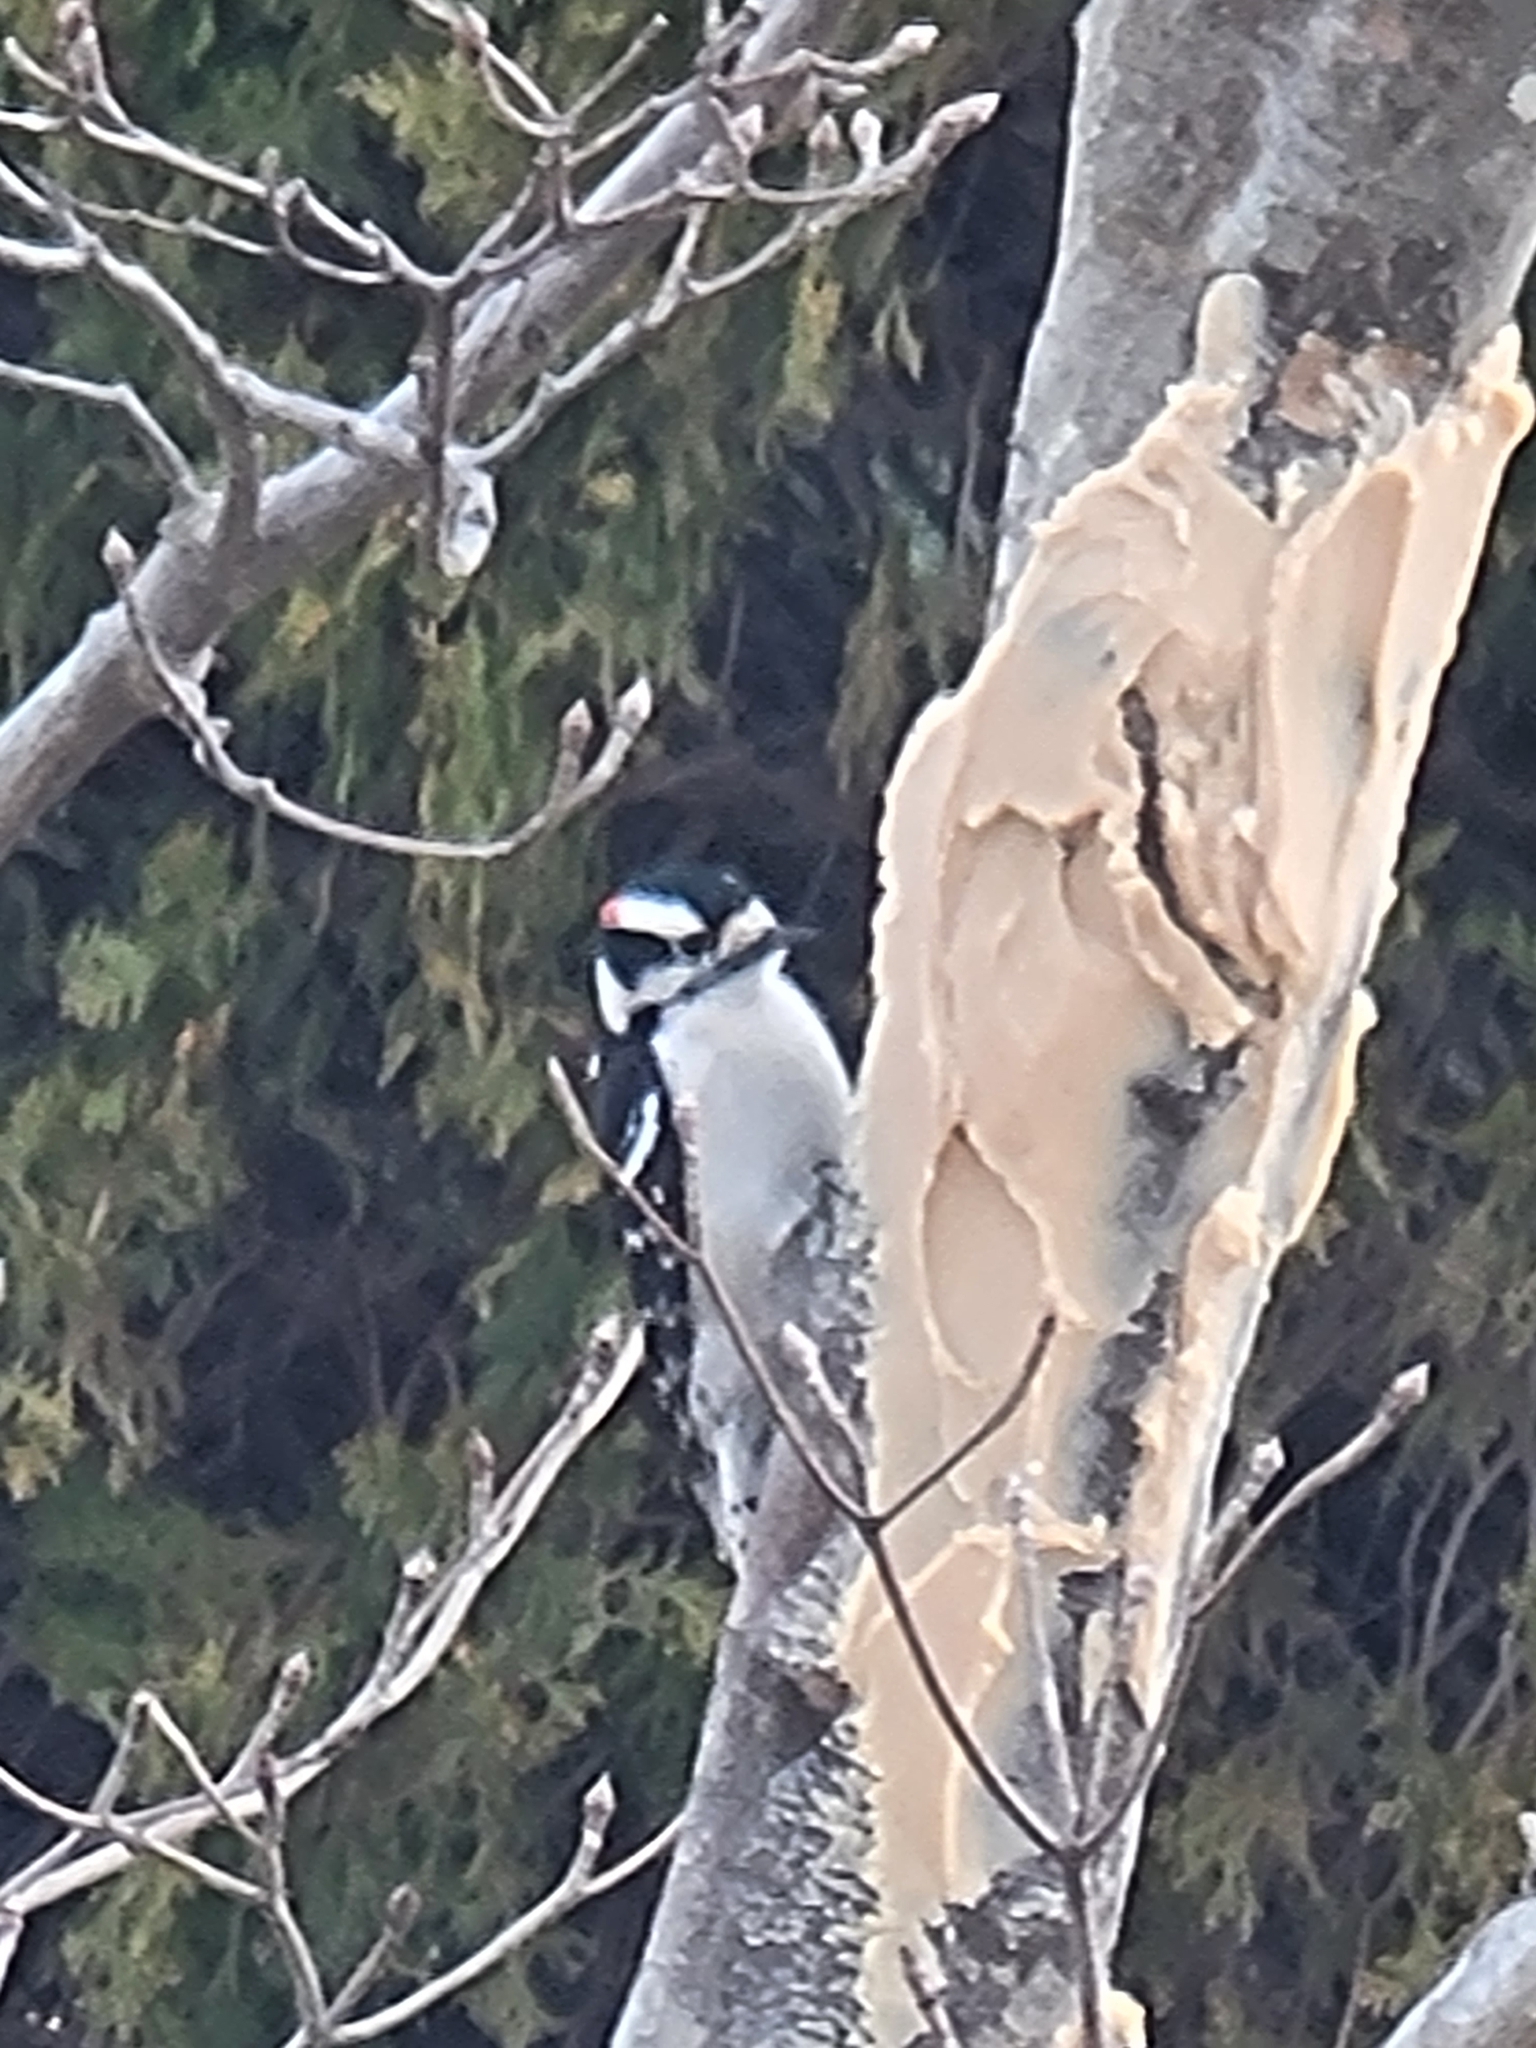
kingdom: Animalia
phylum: Chordata
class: Aves
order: Piciformes
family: Picidae
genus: Dryobates
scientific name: Dryobates pubescens
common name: Downy woodpecker
